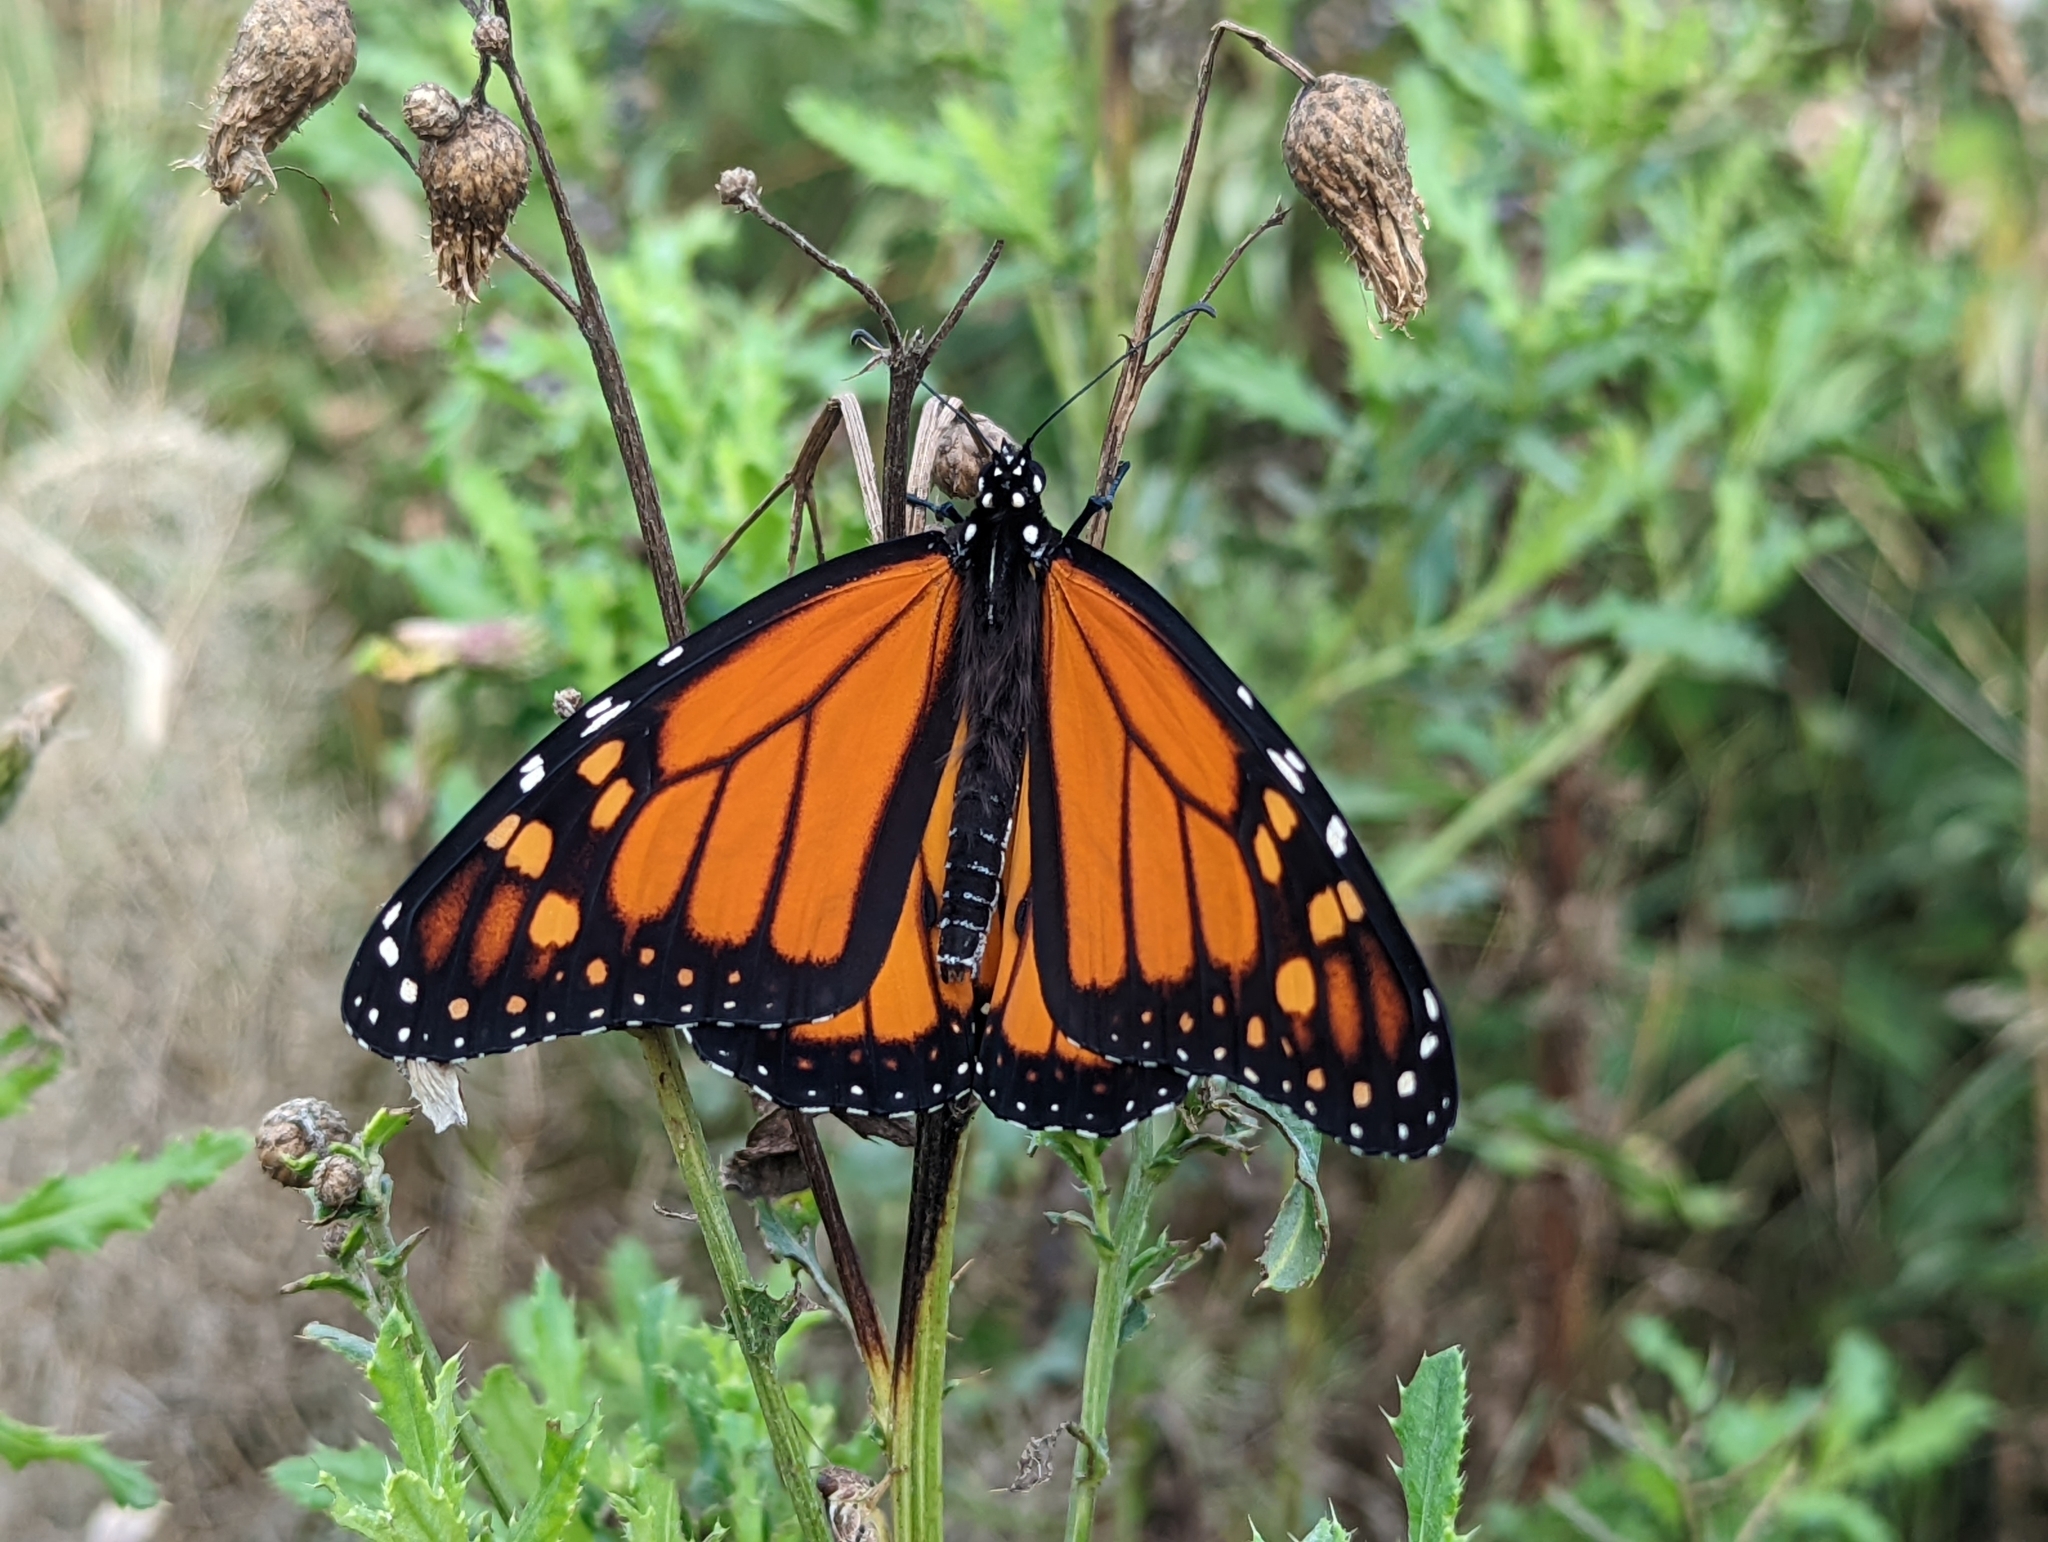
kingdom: Animalia
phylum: Arthropoda
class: Insecta
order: Lepidoptera
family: Nymphalidae
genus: Danaus
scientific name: Danaus plexippus
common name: Monarch
